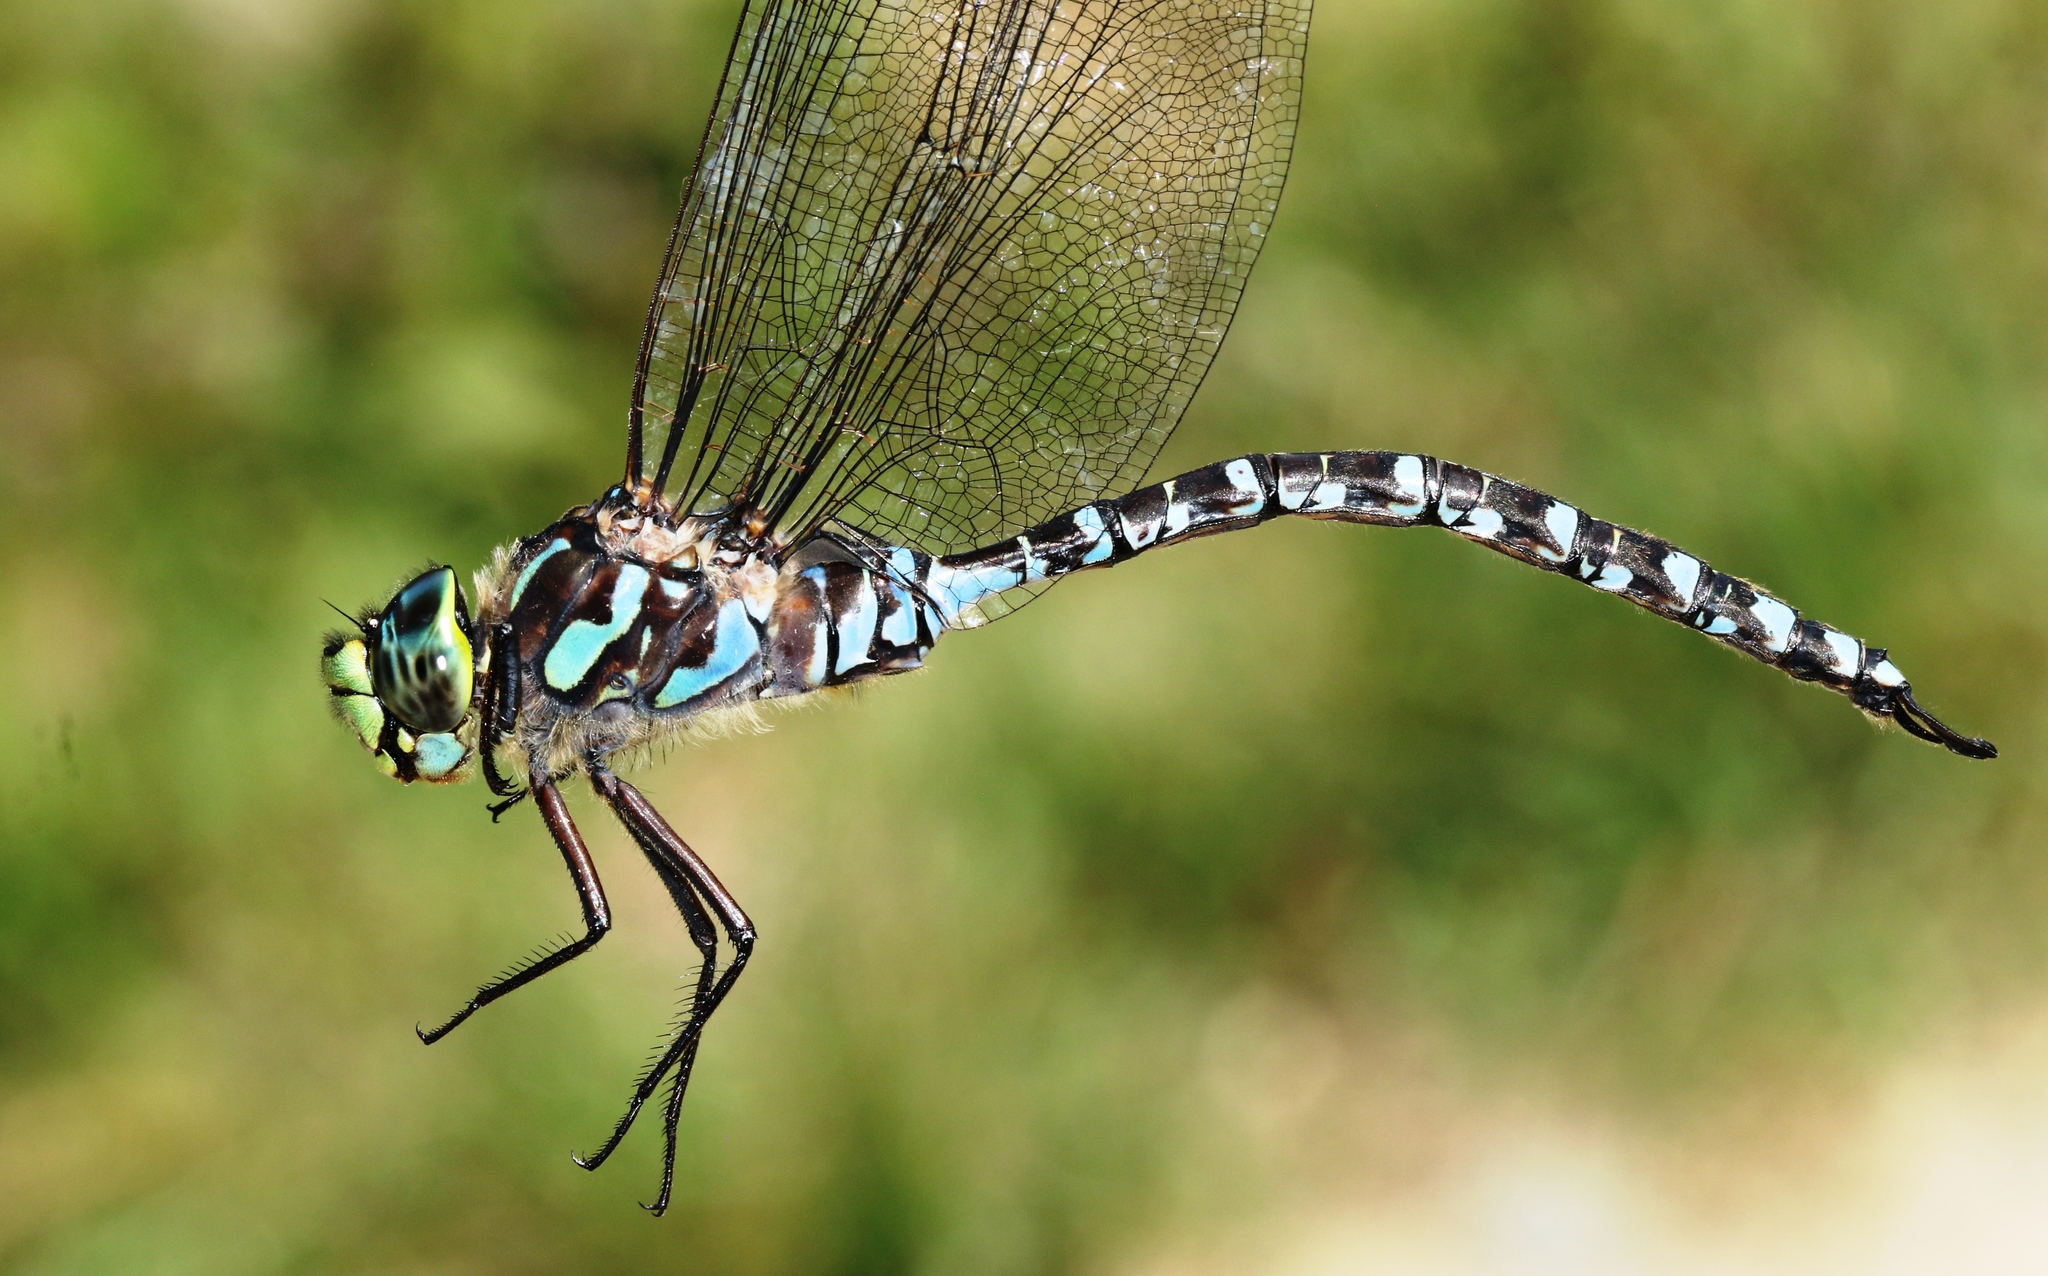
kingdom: Animalia
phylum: Arthropoda
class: Insecta
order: Odonata
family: Aeshnidae
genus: Aeshna
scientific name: Aeshna eremita
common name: Lake darner
